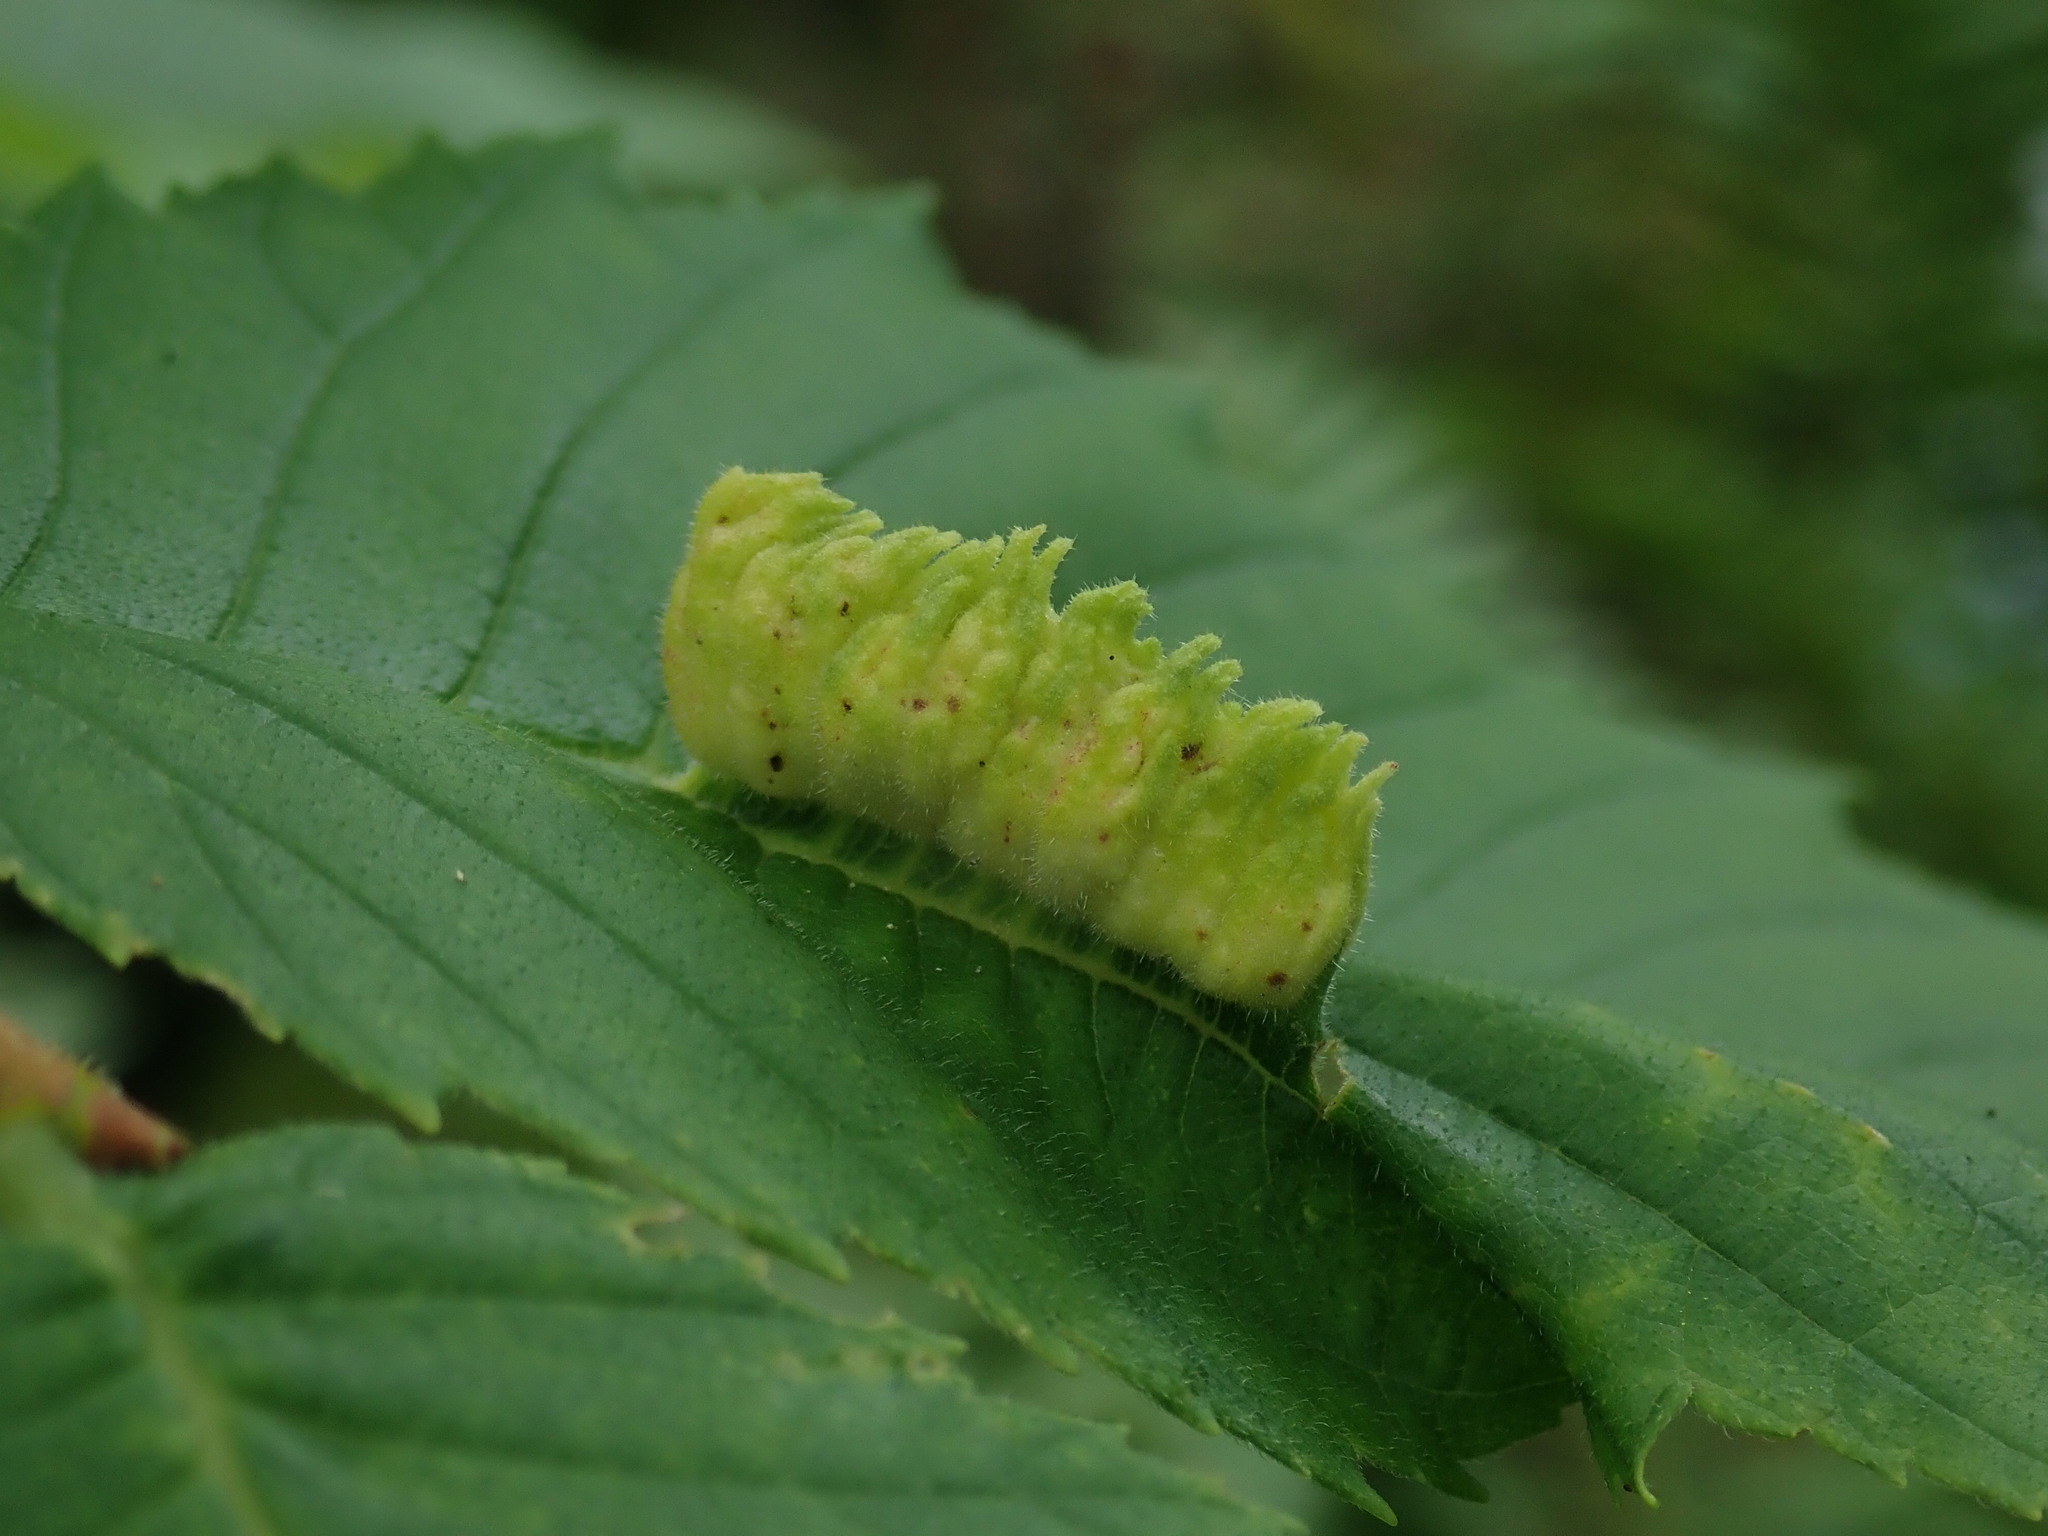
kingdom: Animalia
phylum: Arthropoda
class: Insecta
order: Hemiptera
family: Aphididae
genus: Colopha
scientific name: Colopha ulmicola
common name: Elm cockscombgall aphid
